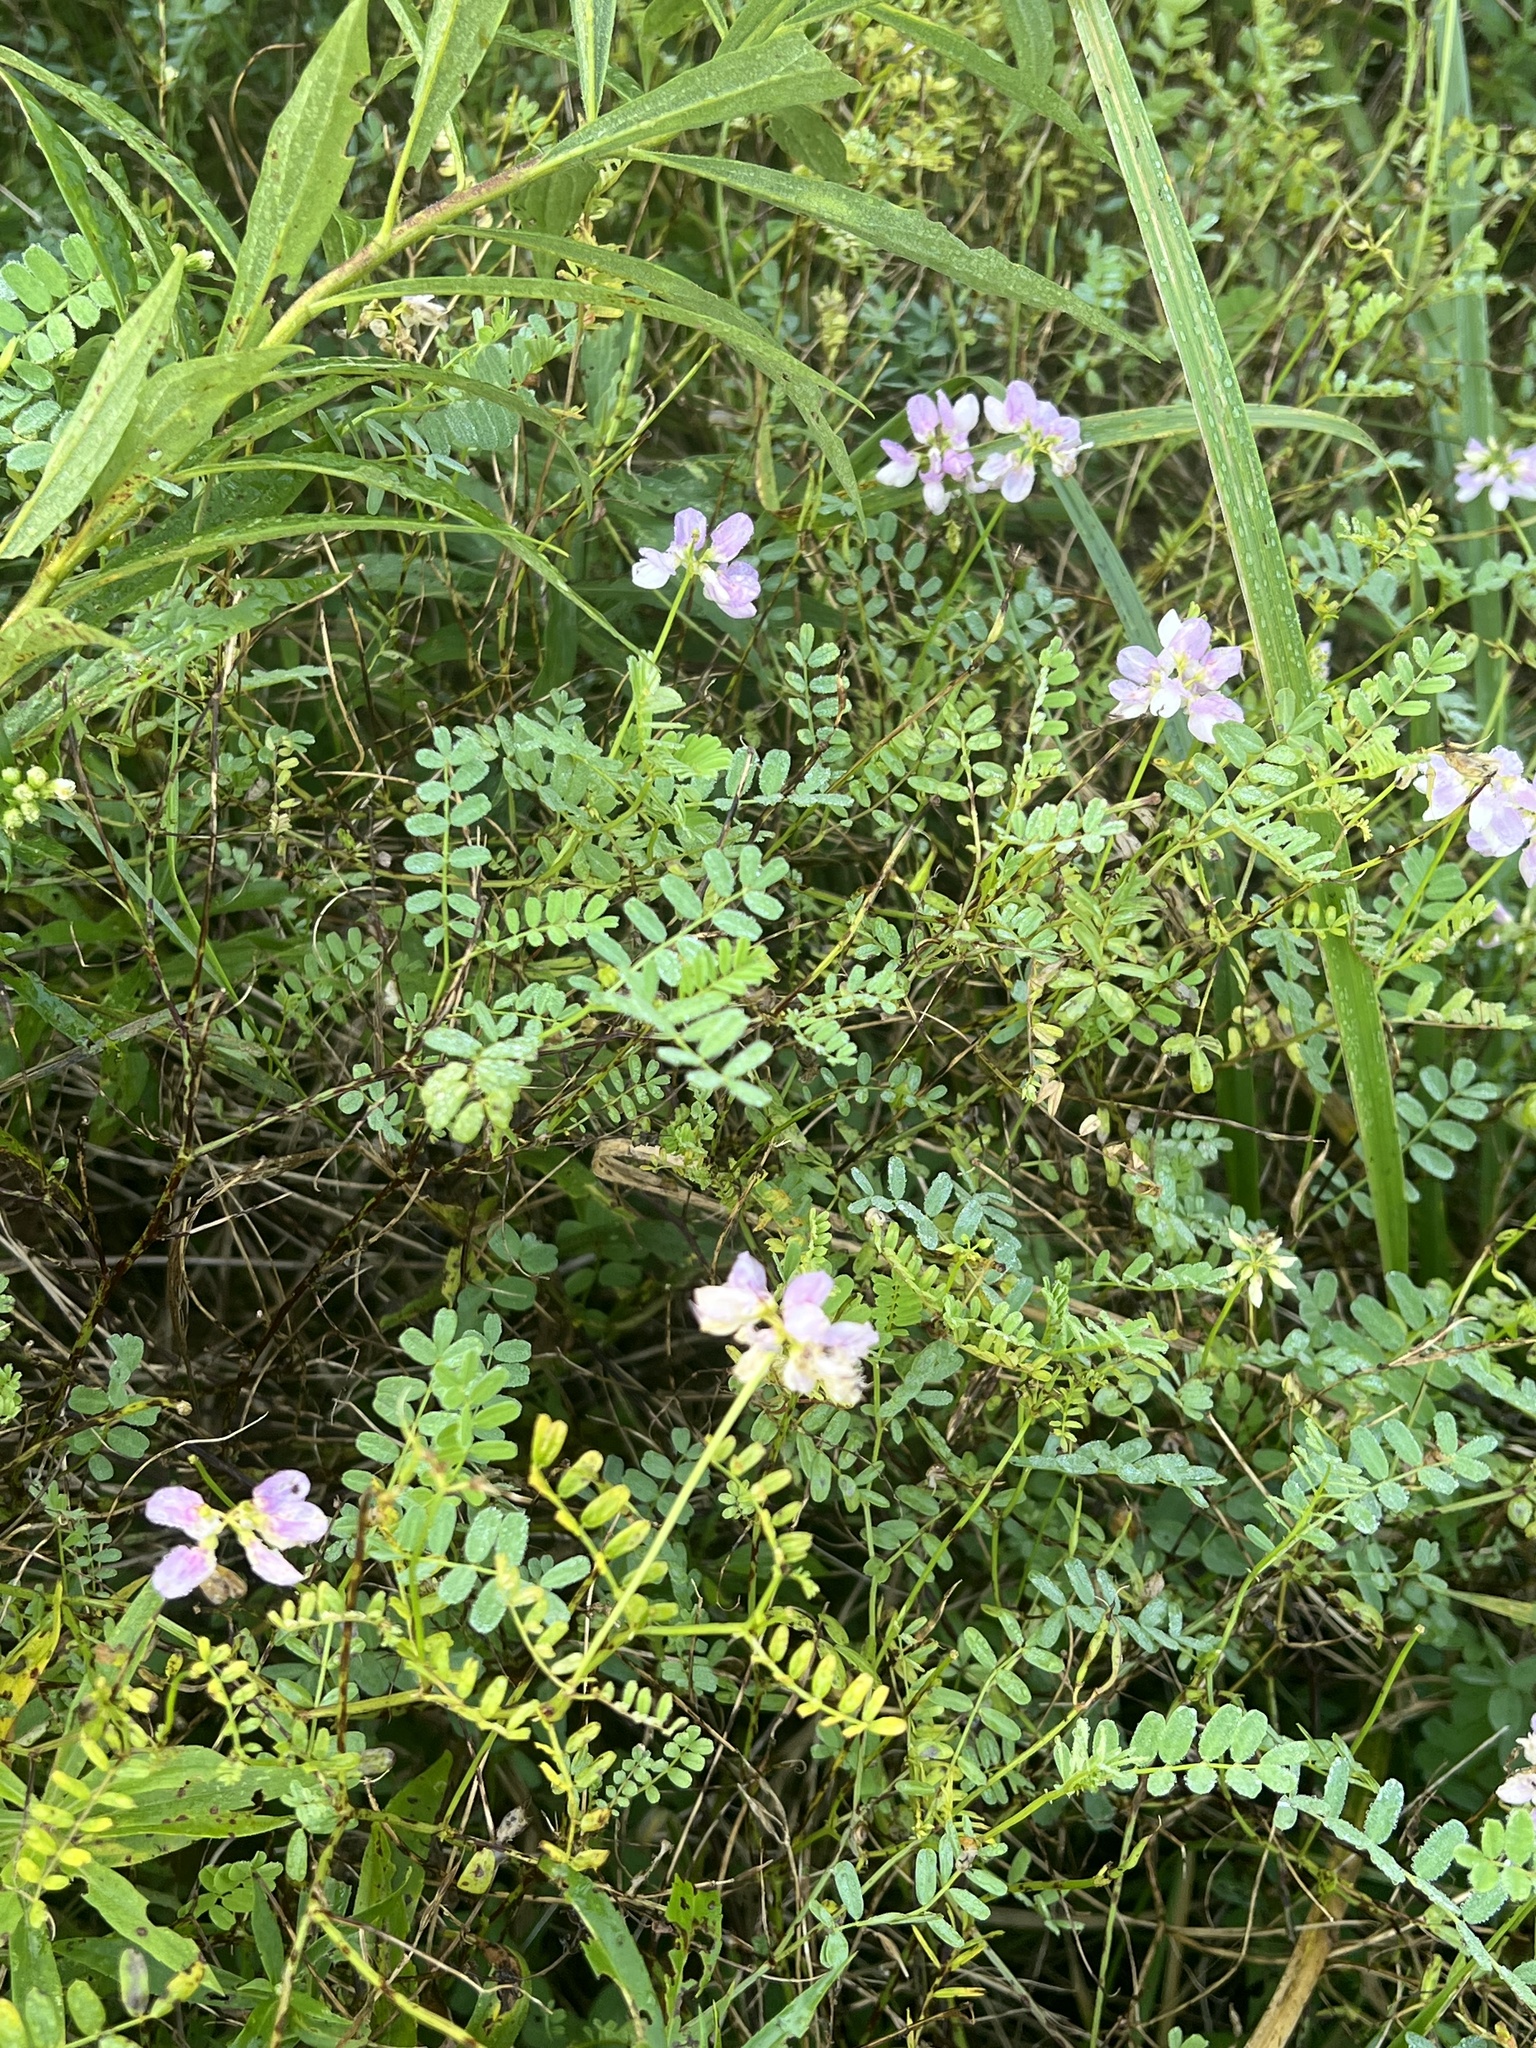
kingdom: Plantae
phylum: Tracheophyta
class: Magnoliopsida
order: Fabales
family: Fabaceae
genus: Coronilla
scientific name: Coronilla varia
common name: Crownvetch
